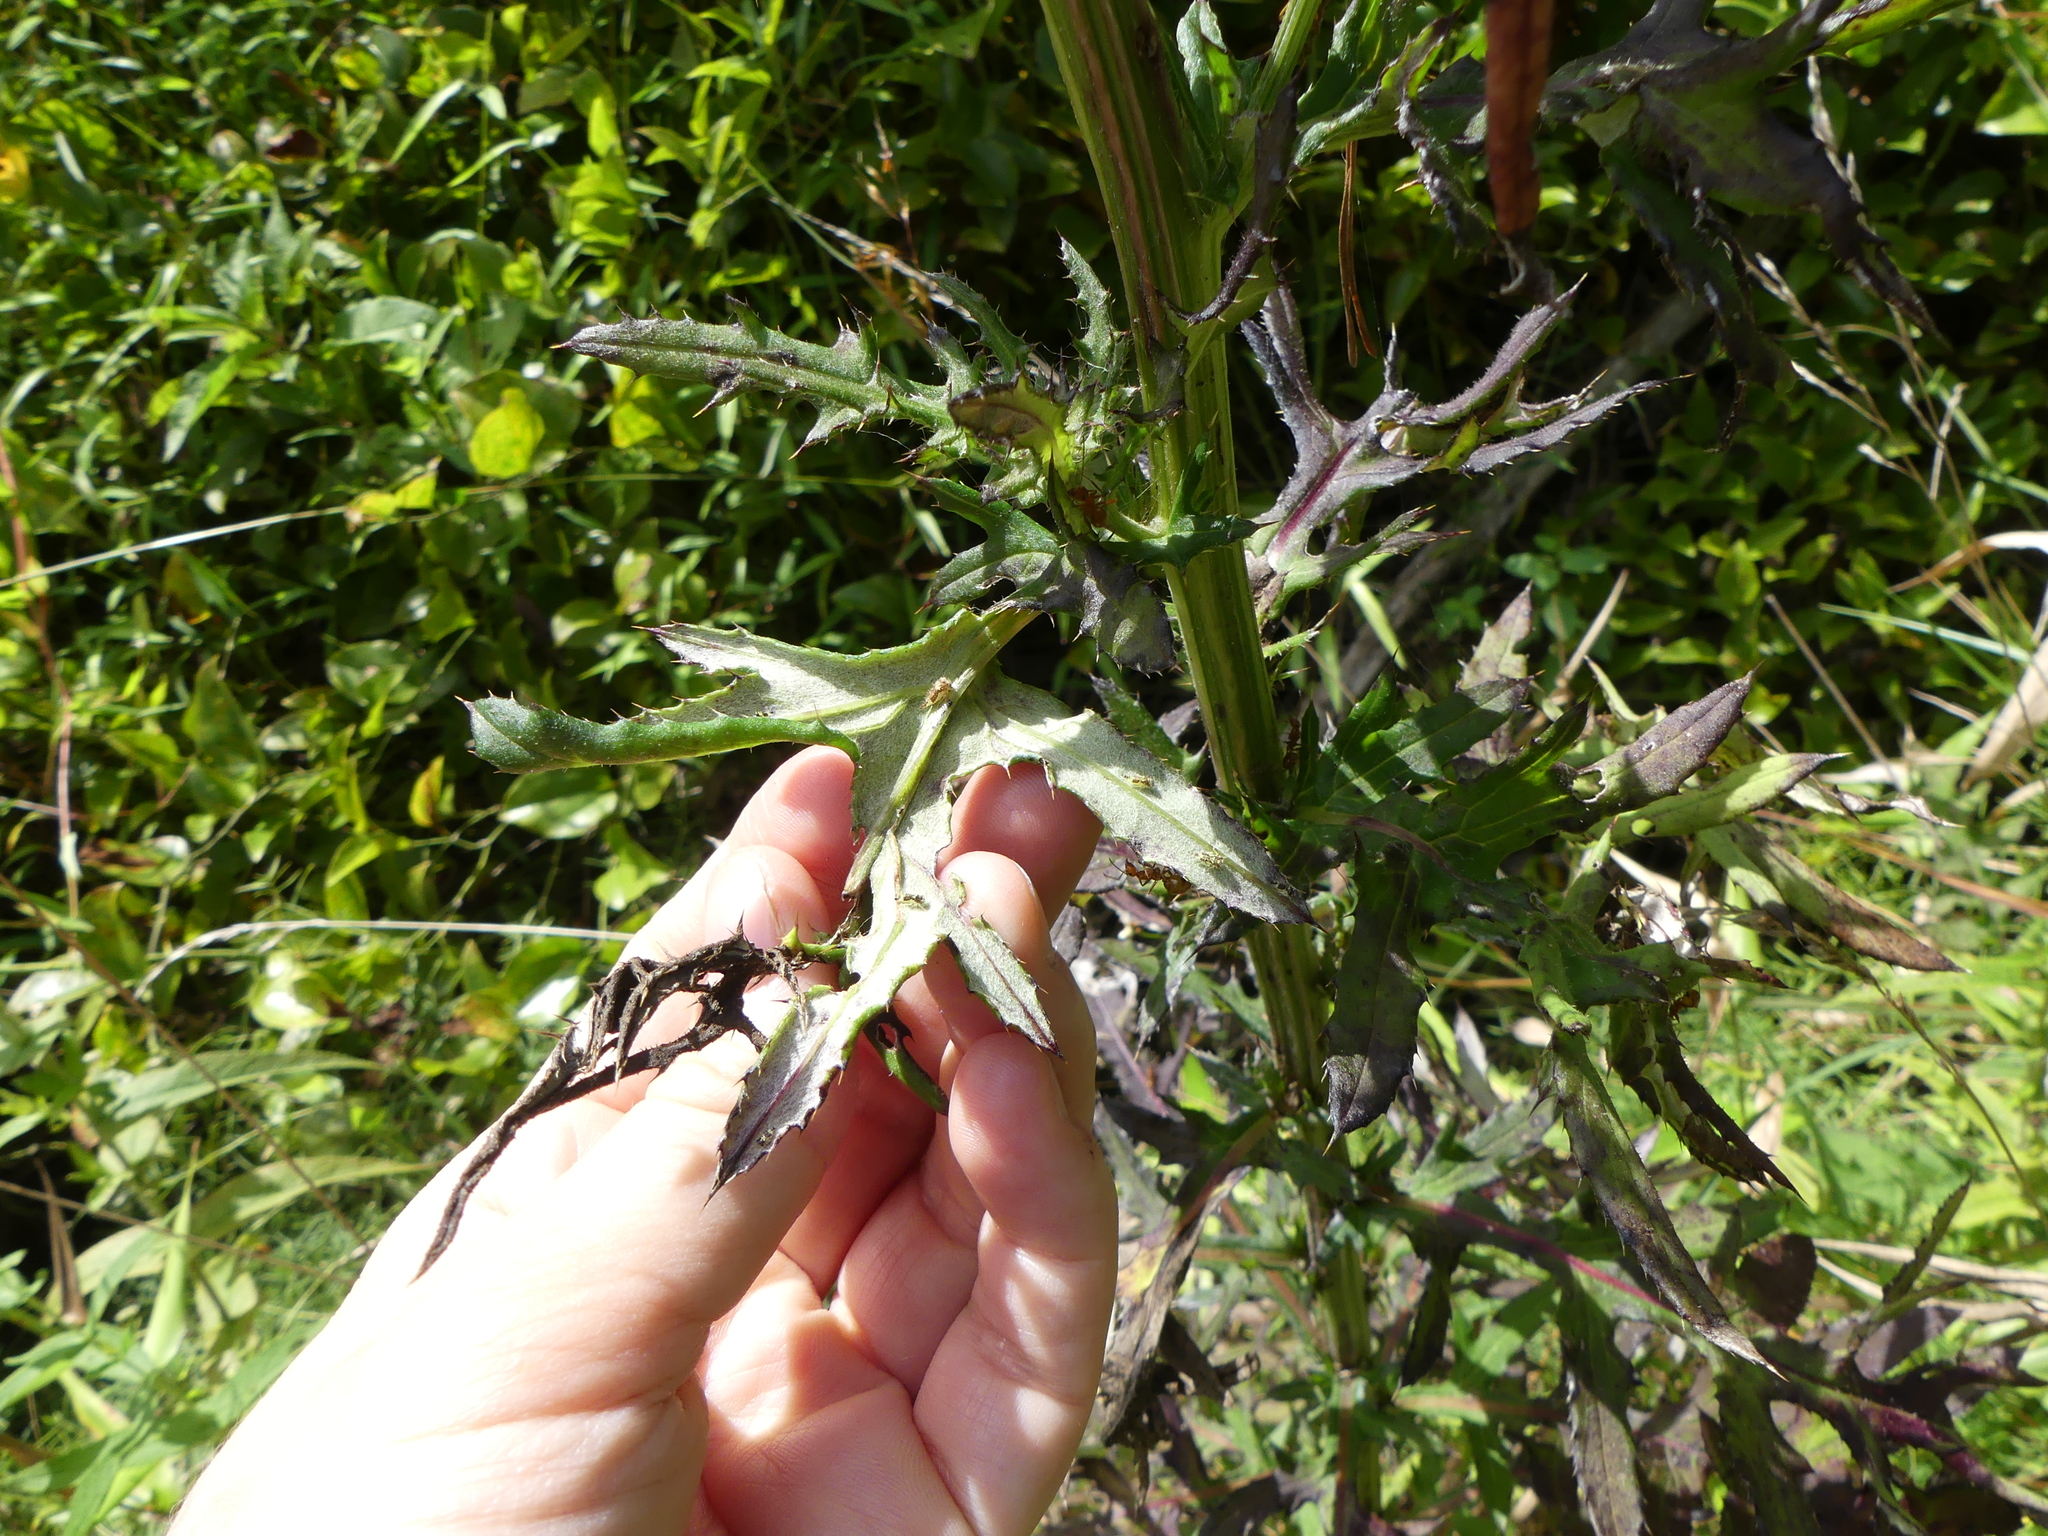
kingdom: Plantae
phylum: Tracheophyta
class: Magnoliopsida
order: Asterales
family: Asteraceae
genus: Cirsium
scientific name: Cirsium muticum
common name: Dunce-nettle
